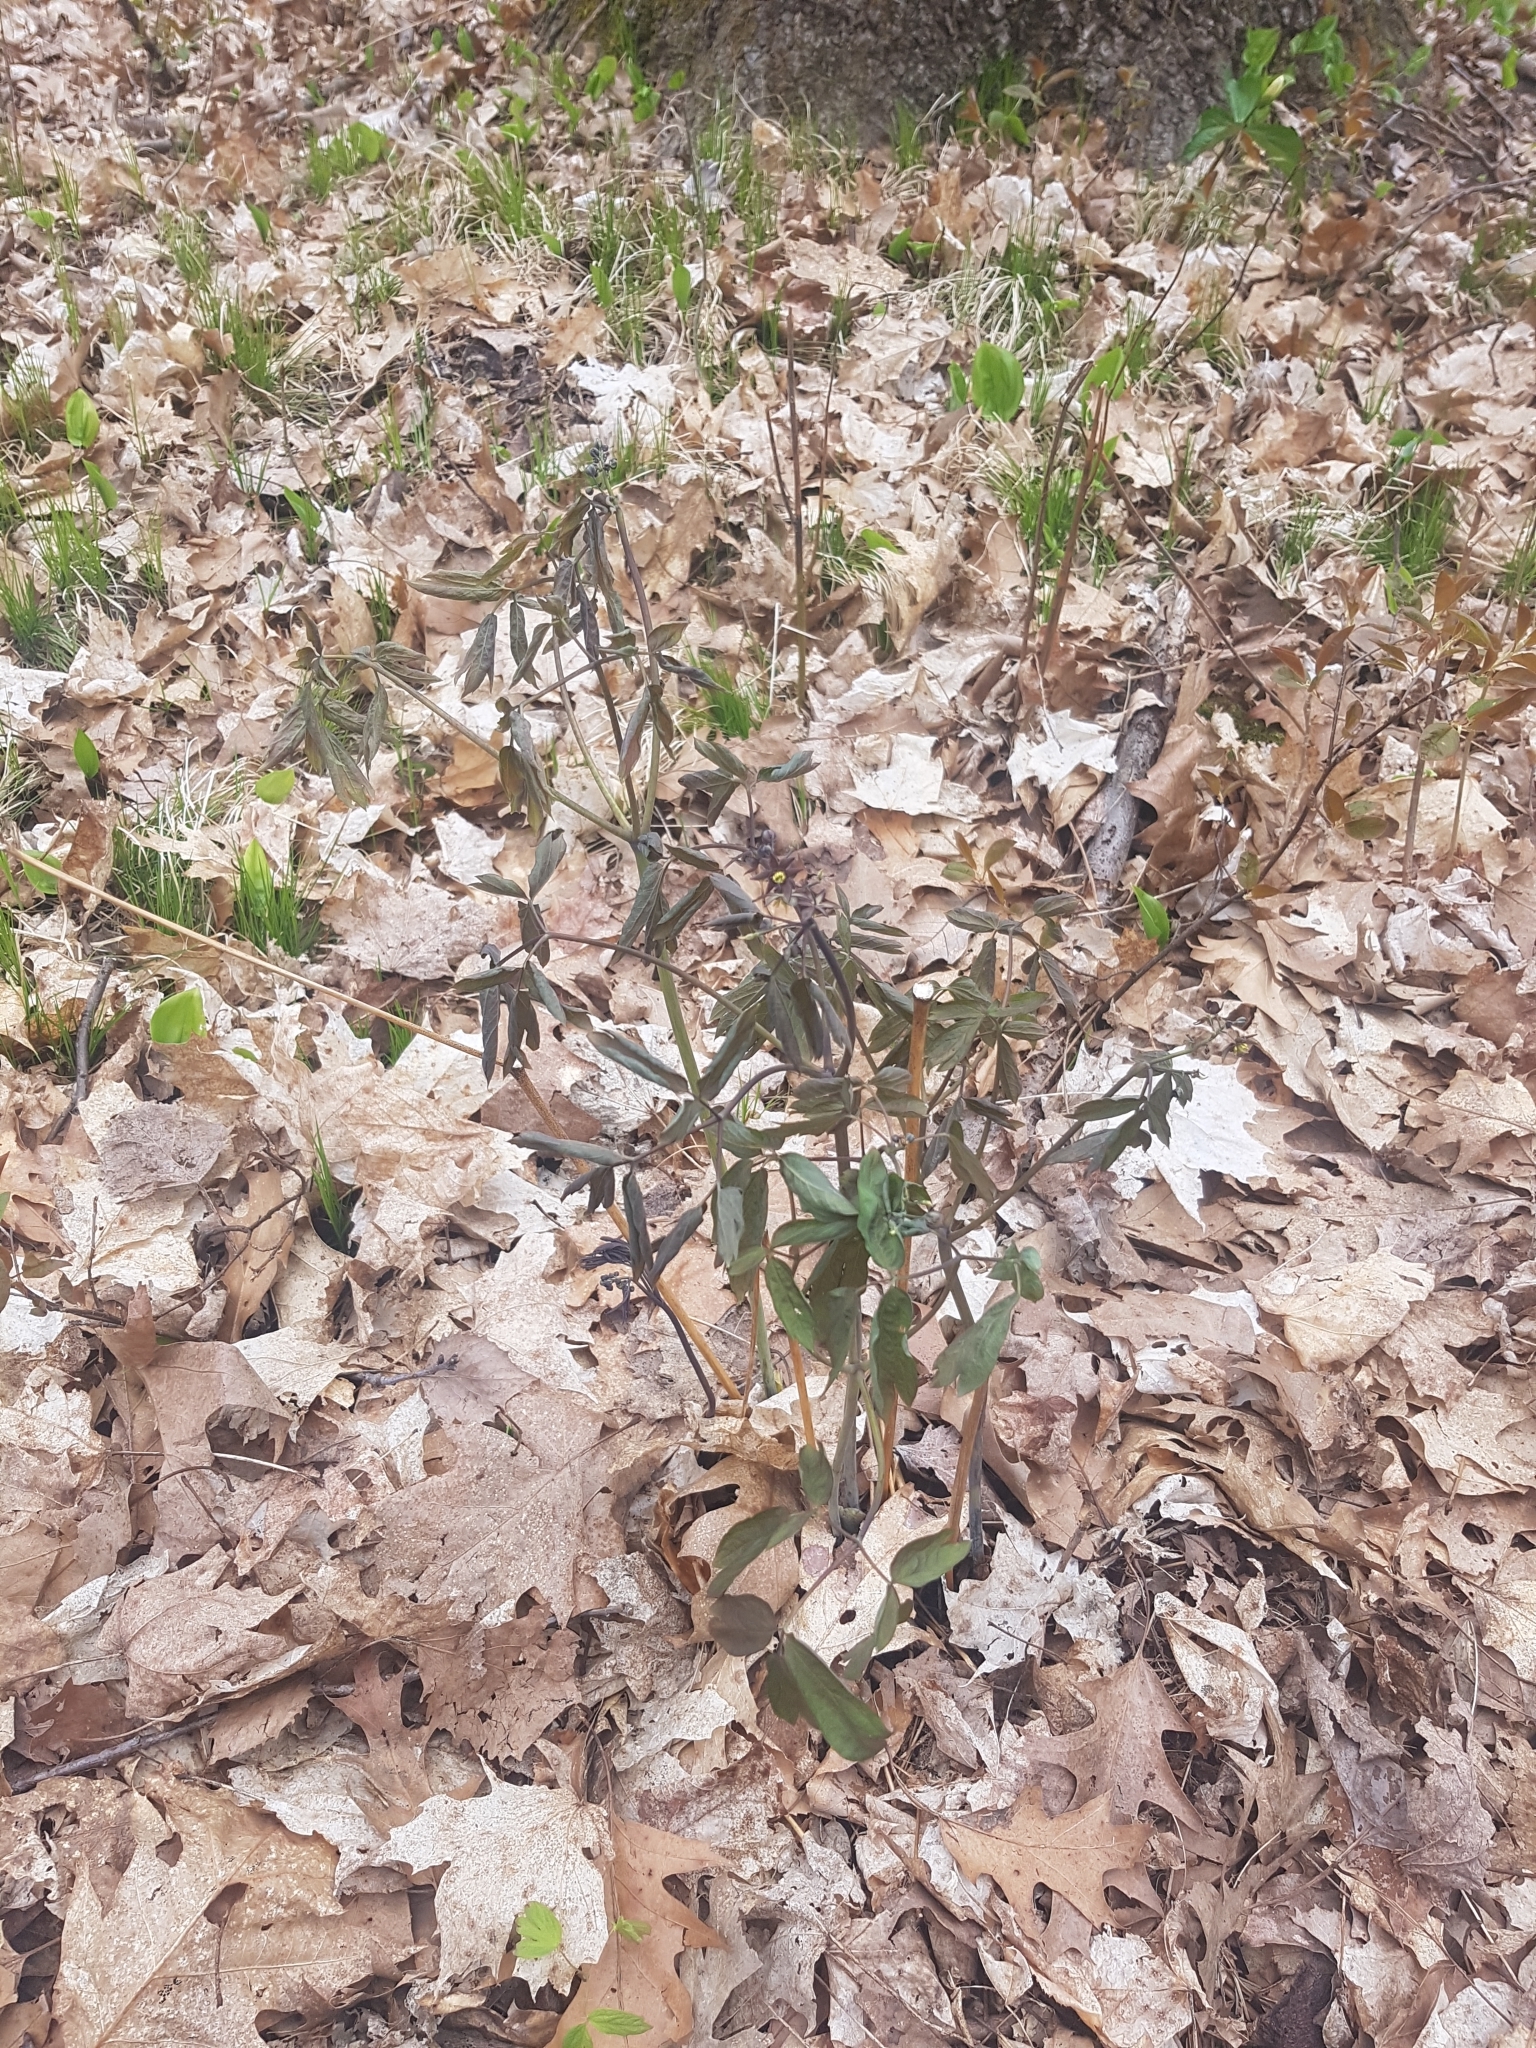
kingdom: Plantae
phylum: Tracheophyta
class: Magnoliopsida
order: Ranunculales
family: Berberidaceae
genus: Caulophyllum
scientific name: Caulophyllum giganteum
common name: Blue cohosh
